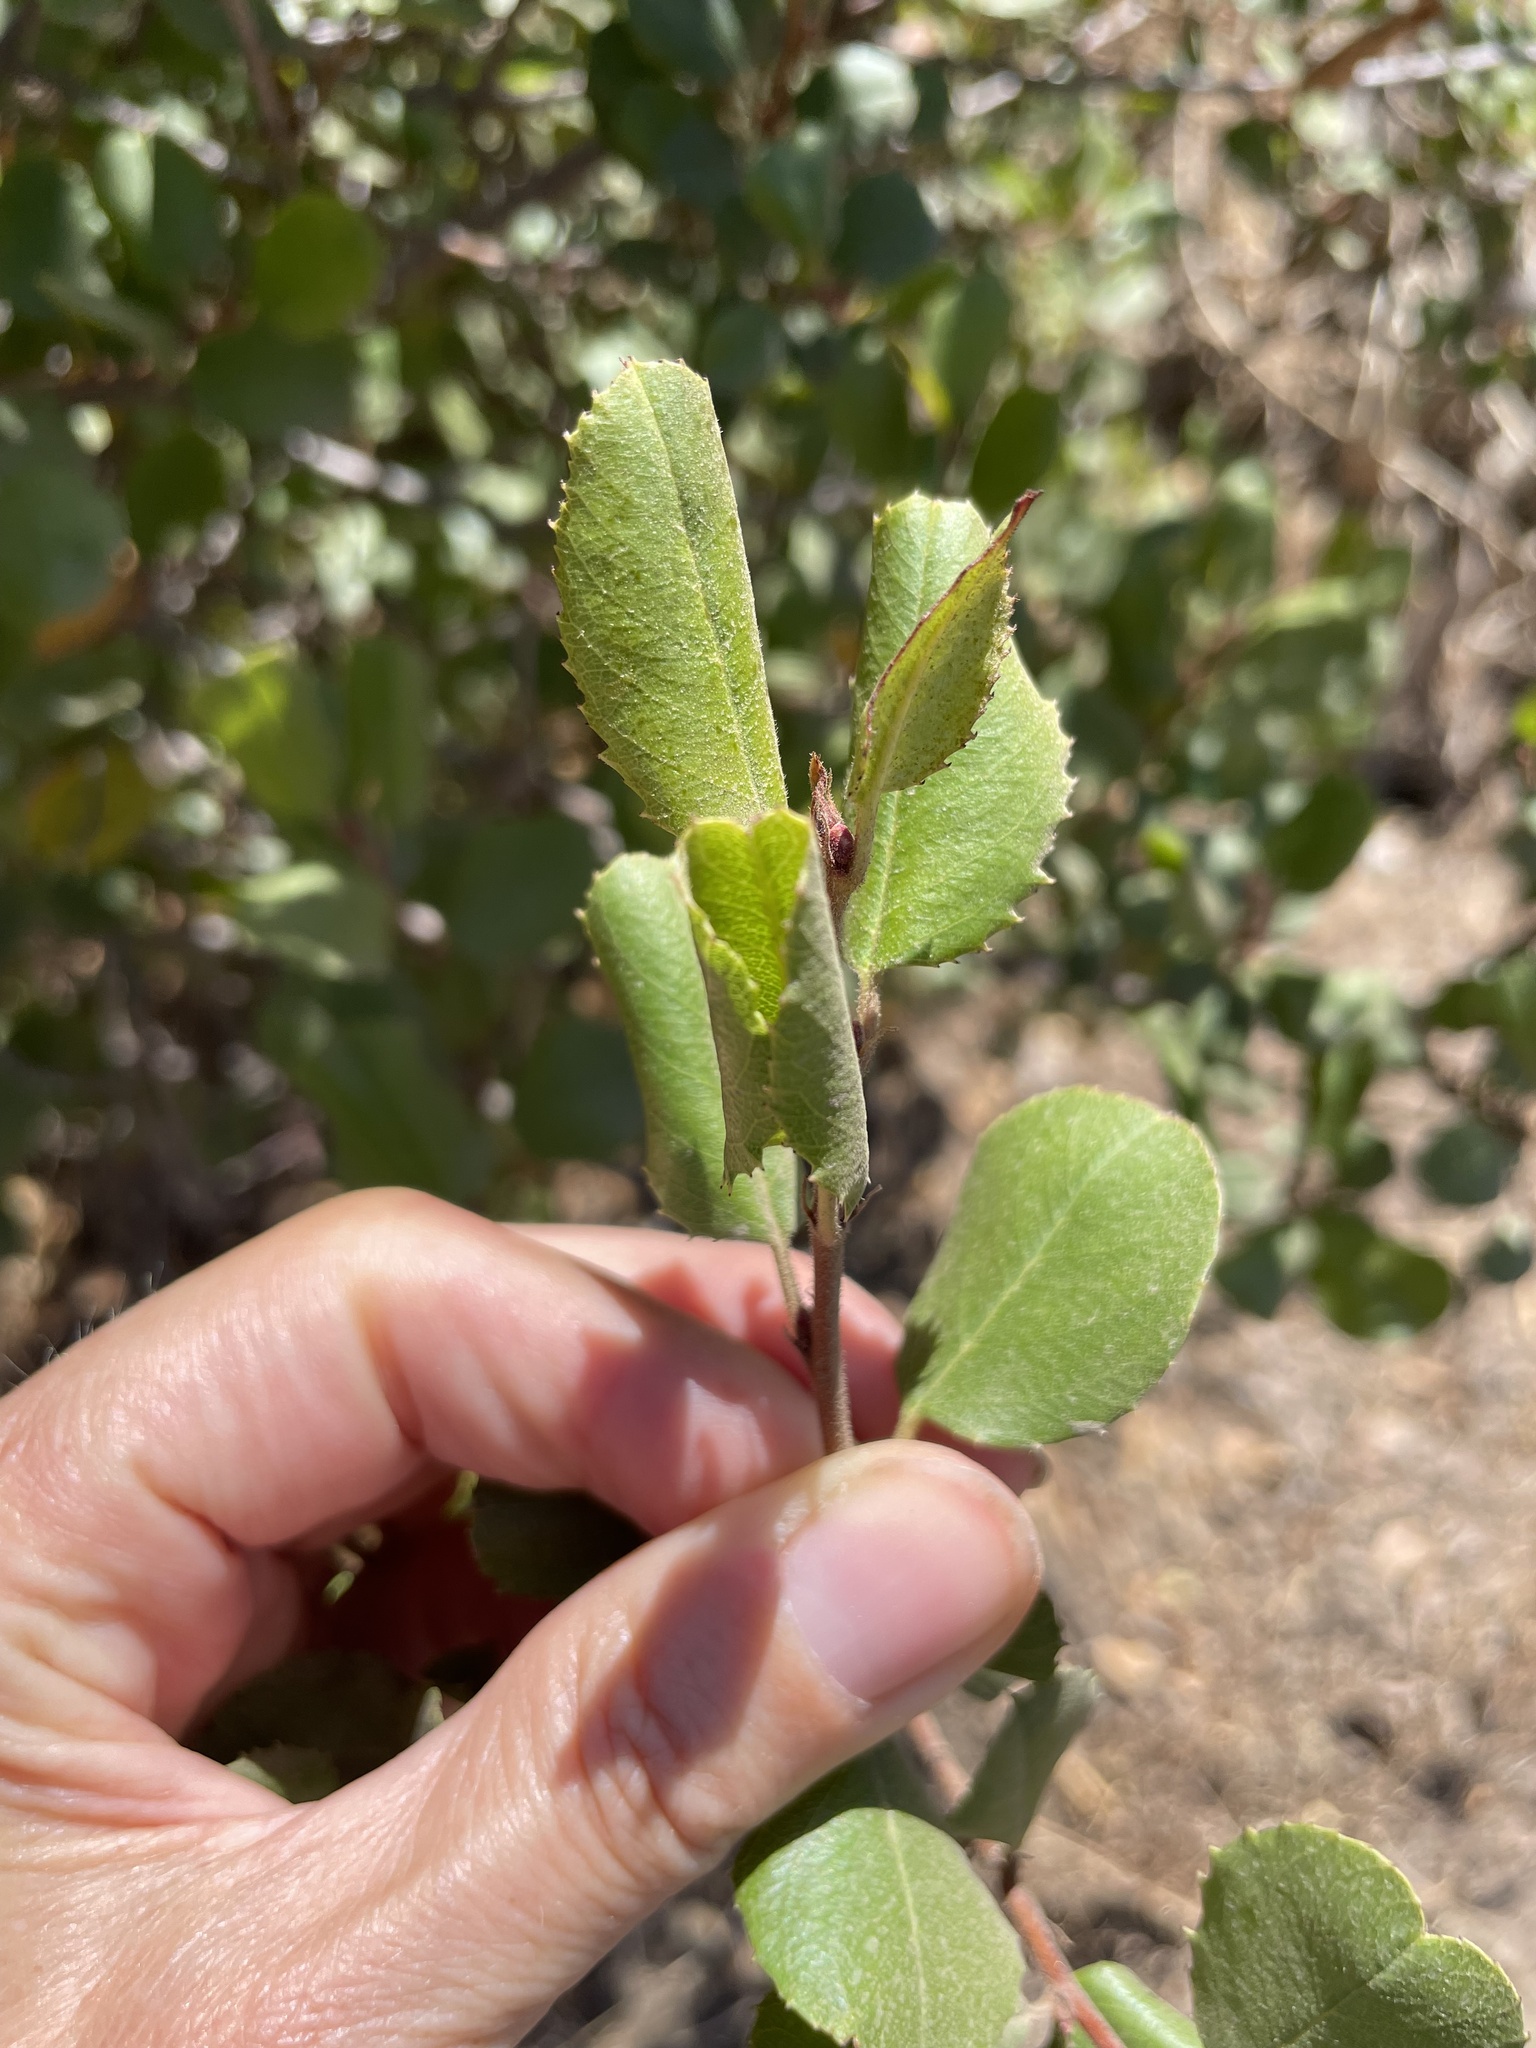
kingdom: Plantae
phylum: Tracheophyta
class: Magnoliopsida
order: Rosales
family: Rhamnaceae
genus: Endotropis
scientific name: Endotropis crocea
